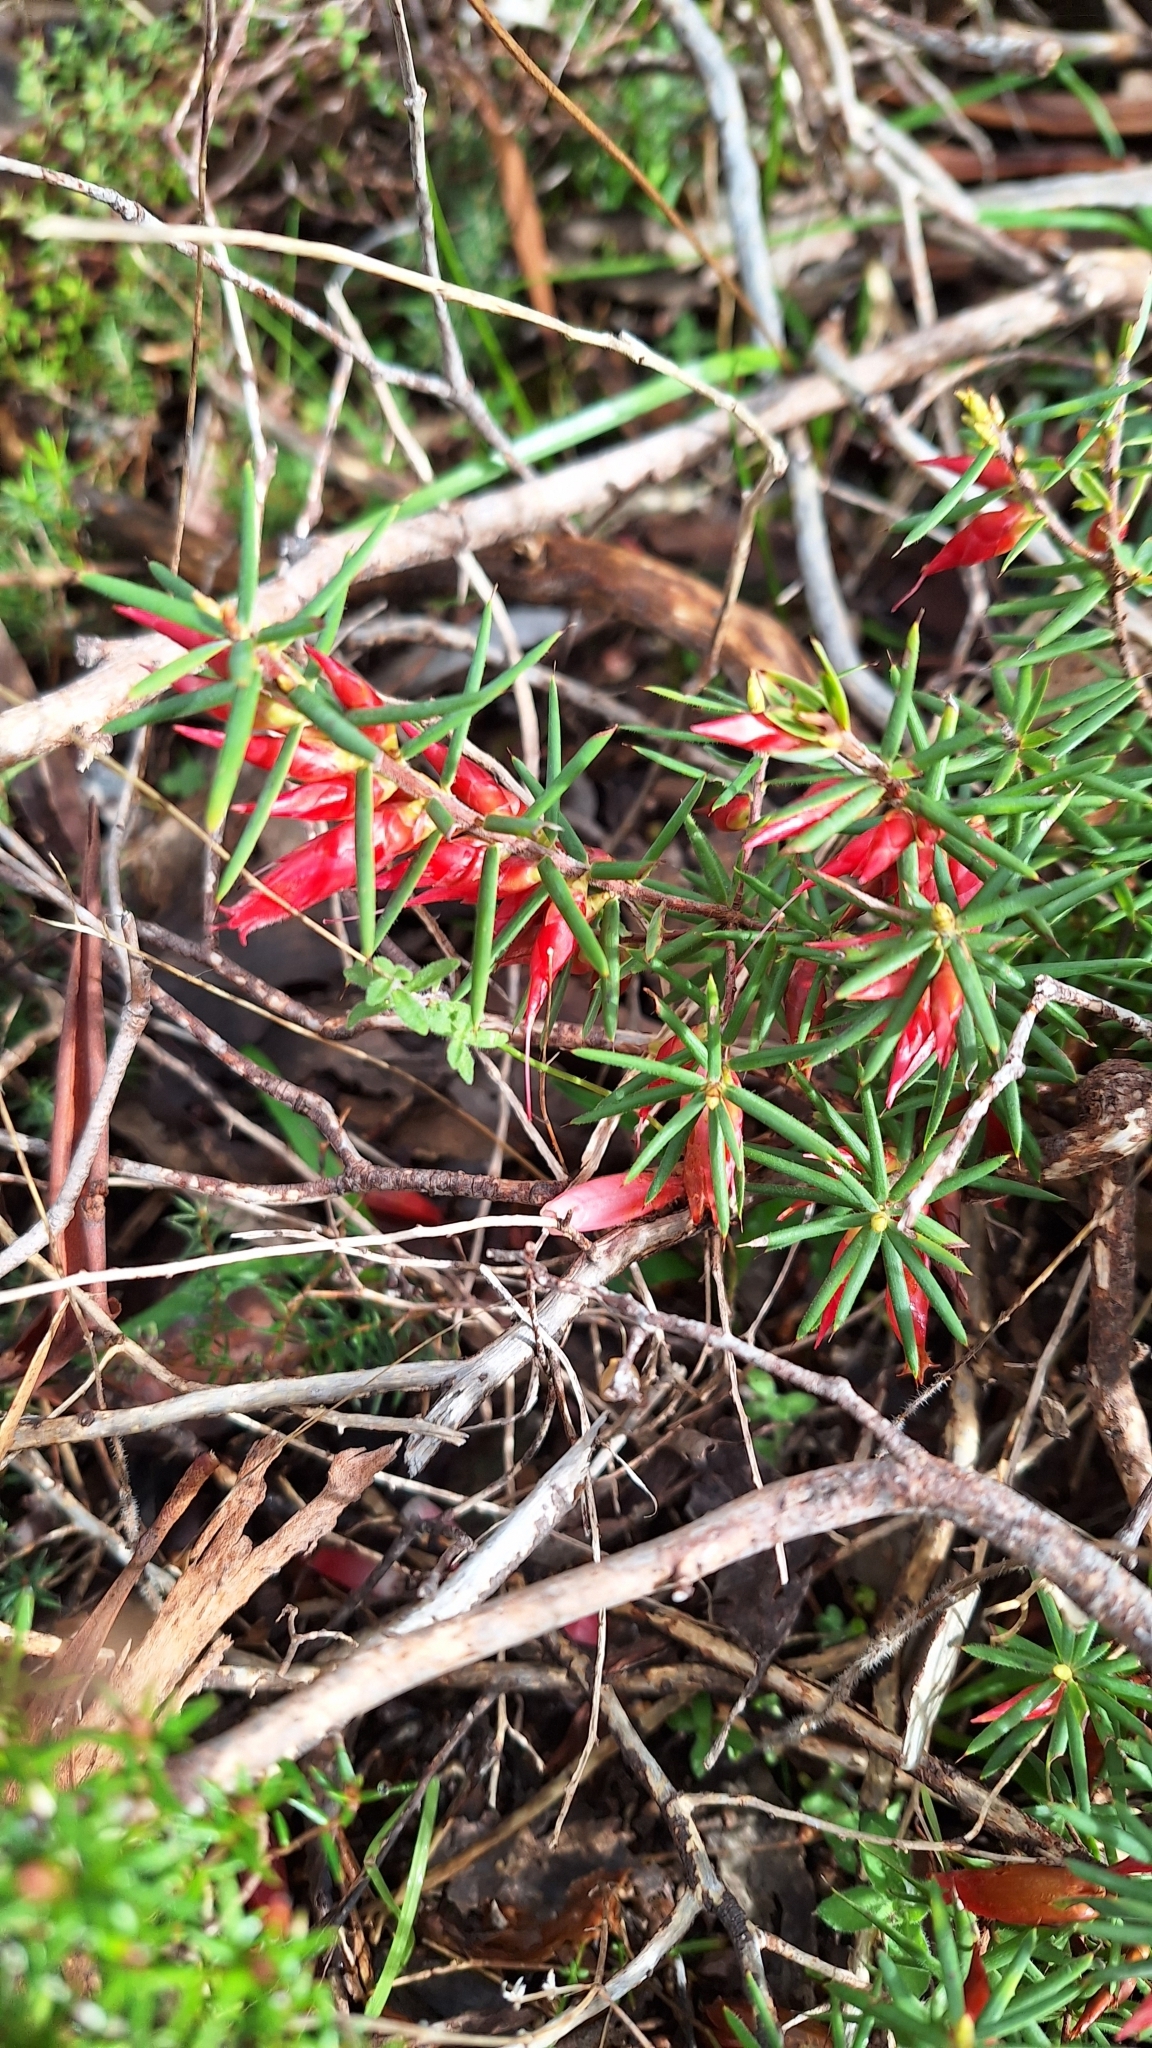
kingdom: Plantae
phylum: Tracheophyta
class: Magnoliopsida
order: Ericales
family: Ericaceae
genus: Stenanthera
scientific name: Stenanthera conostephioides
